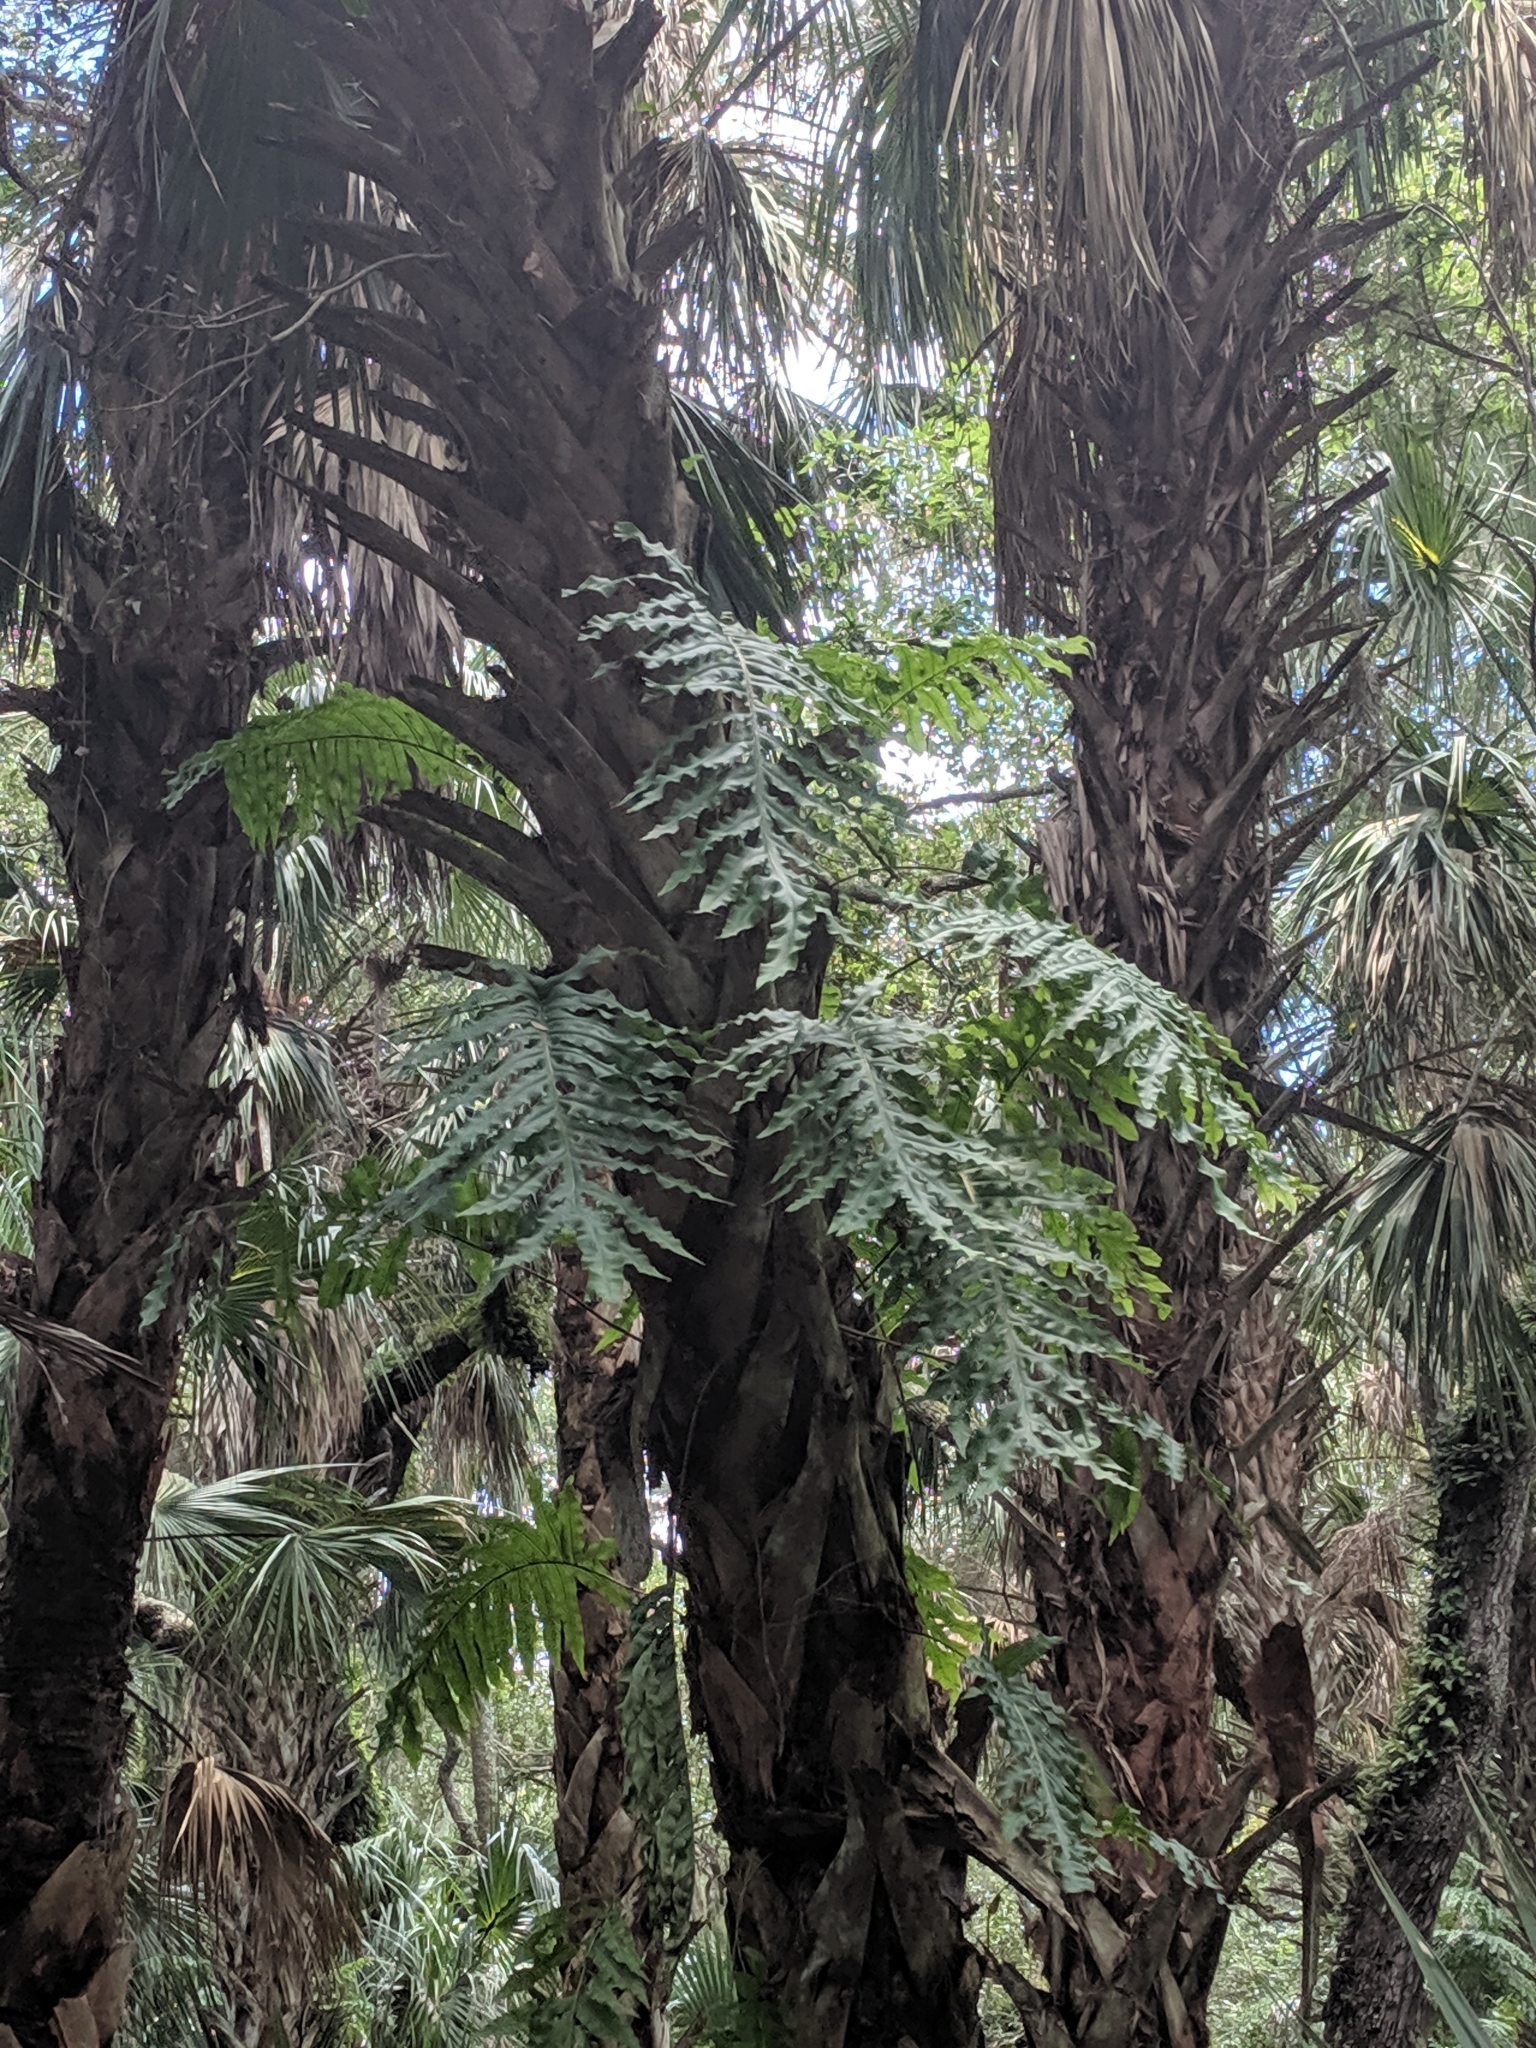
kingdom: Plantae
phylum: Tracheophyta
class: Polypodiopsida
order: Polypodiales
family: Polypodiaceae
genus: Phlebodium
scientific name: Phlebodium aureum
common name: Gold-foot fern
